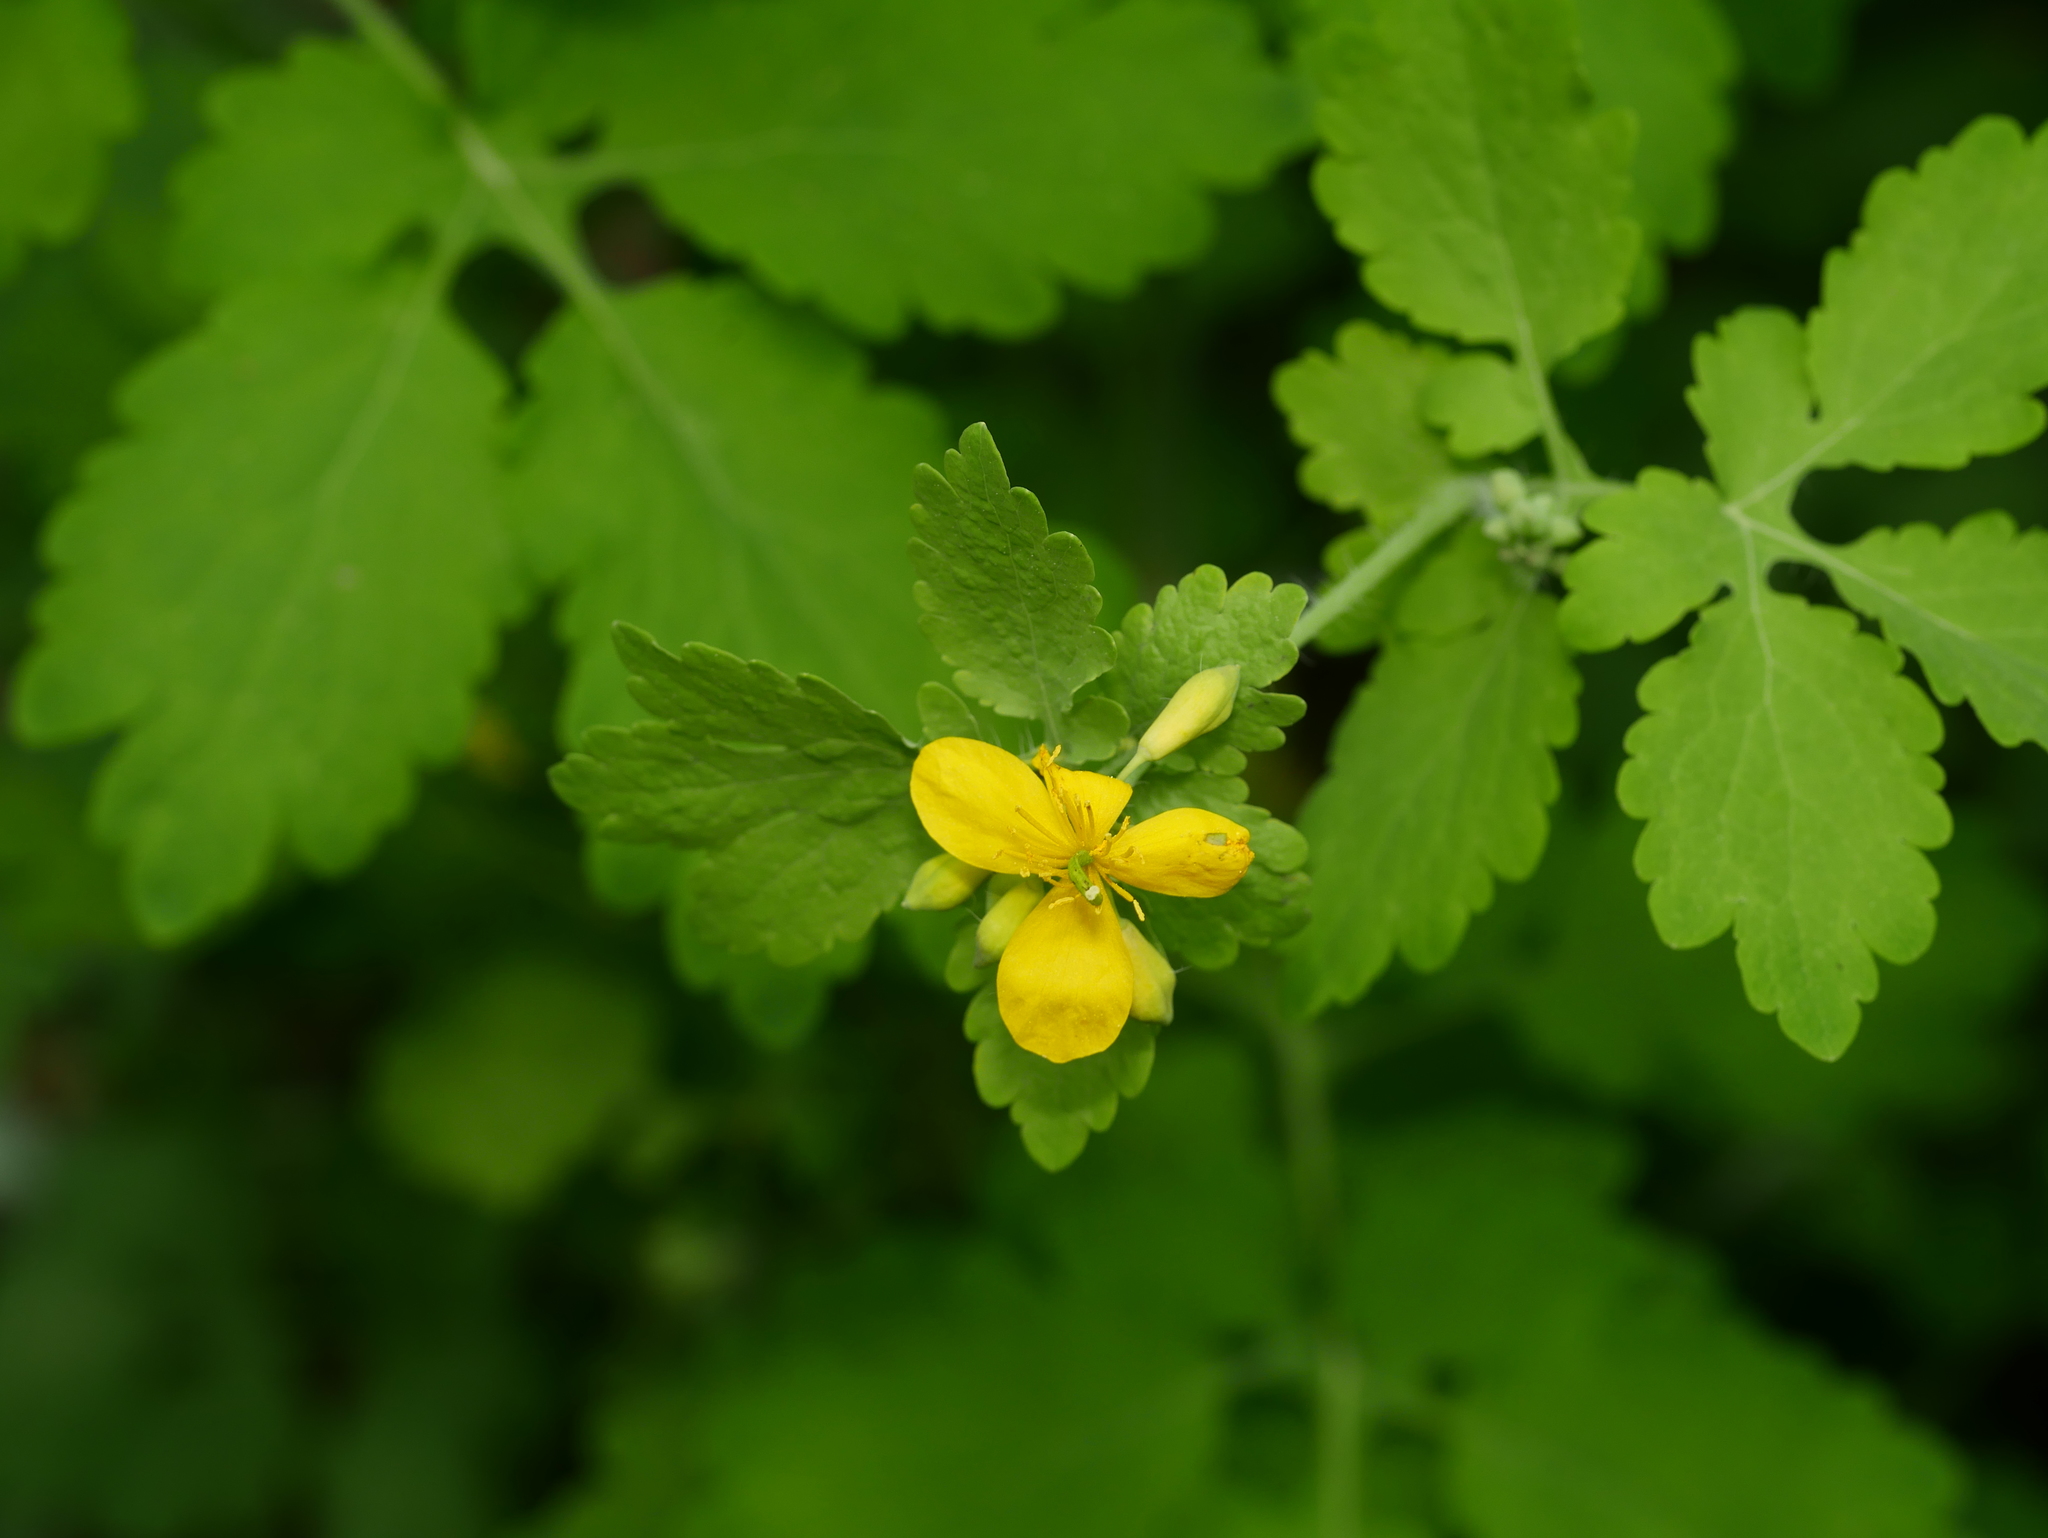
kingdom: Plantae
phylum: Tracheophyta
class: Magnoliopsida
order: Ranunculales
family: Papaveraceae
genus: Chelidonium
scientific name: Chelidonium majus
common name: Greater celandine
